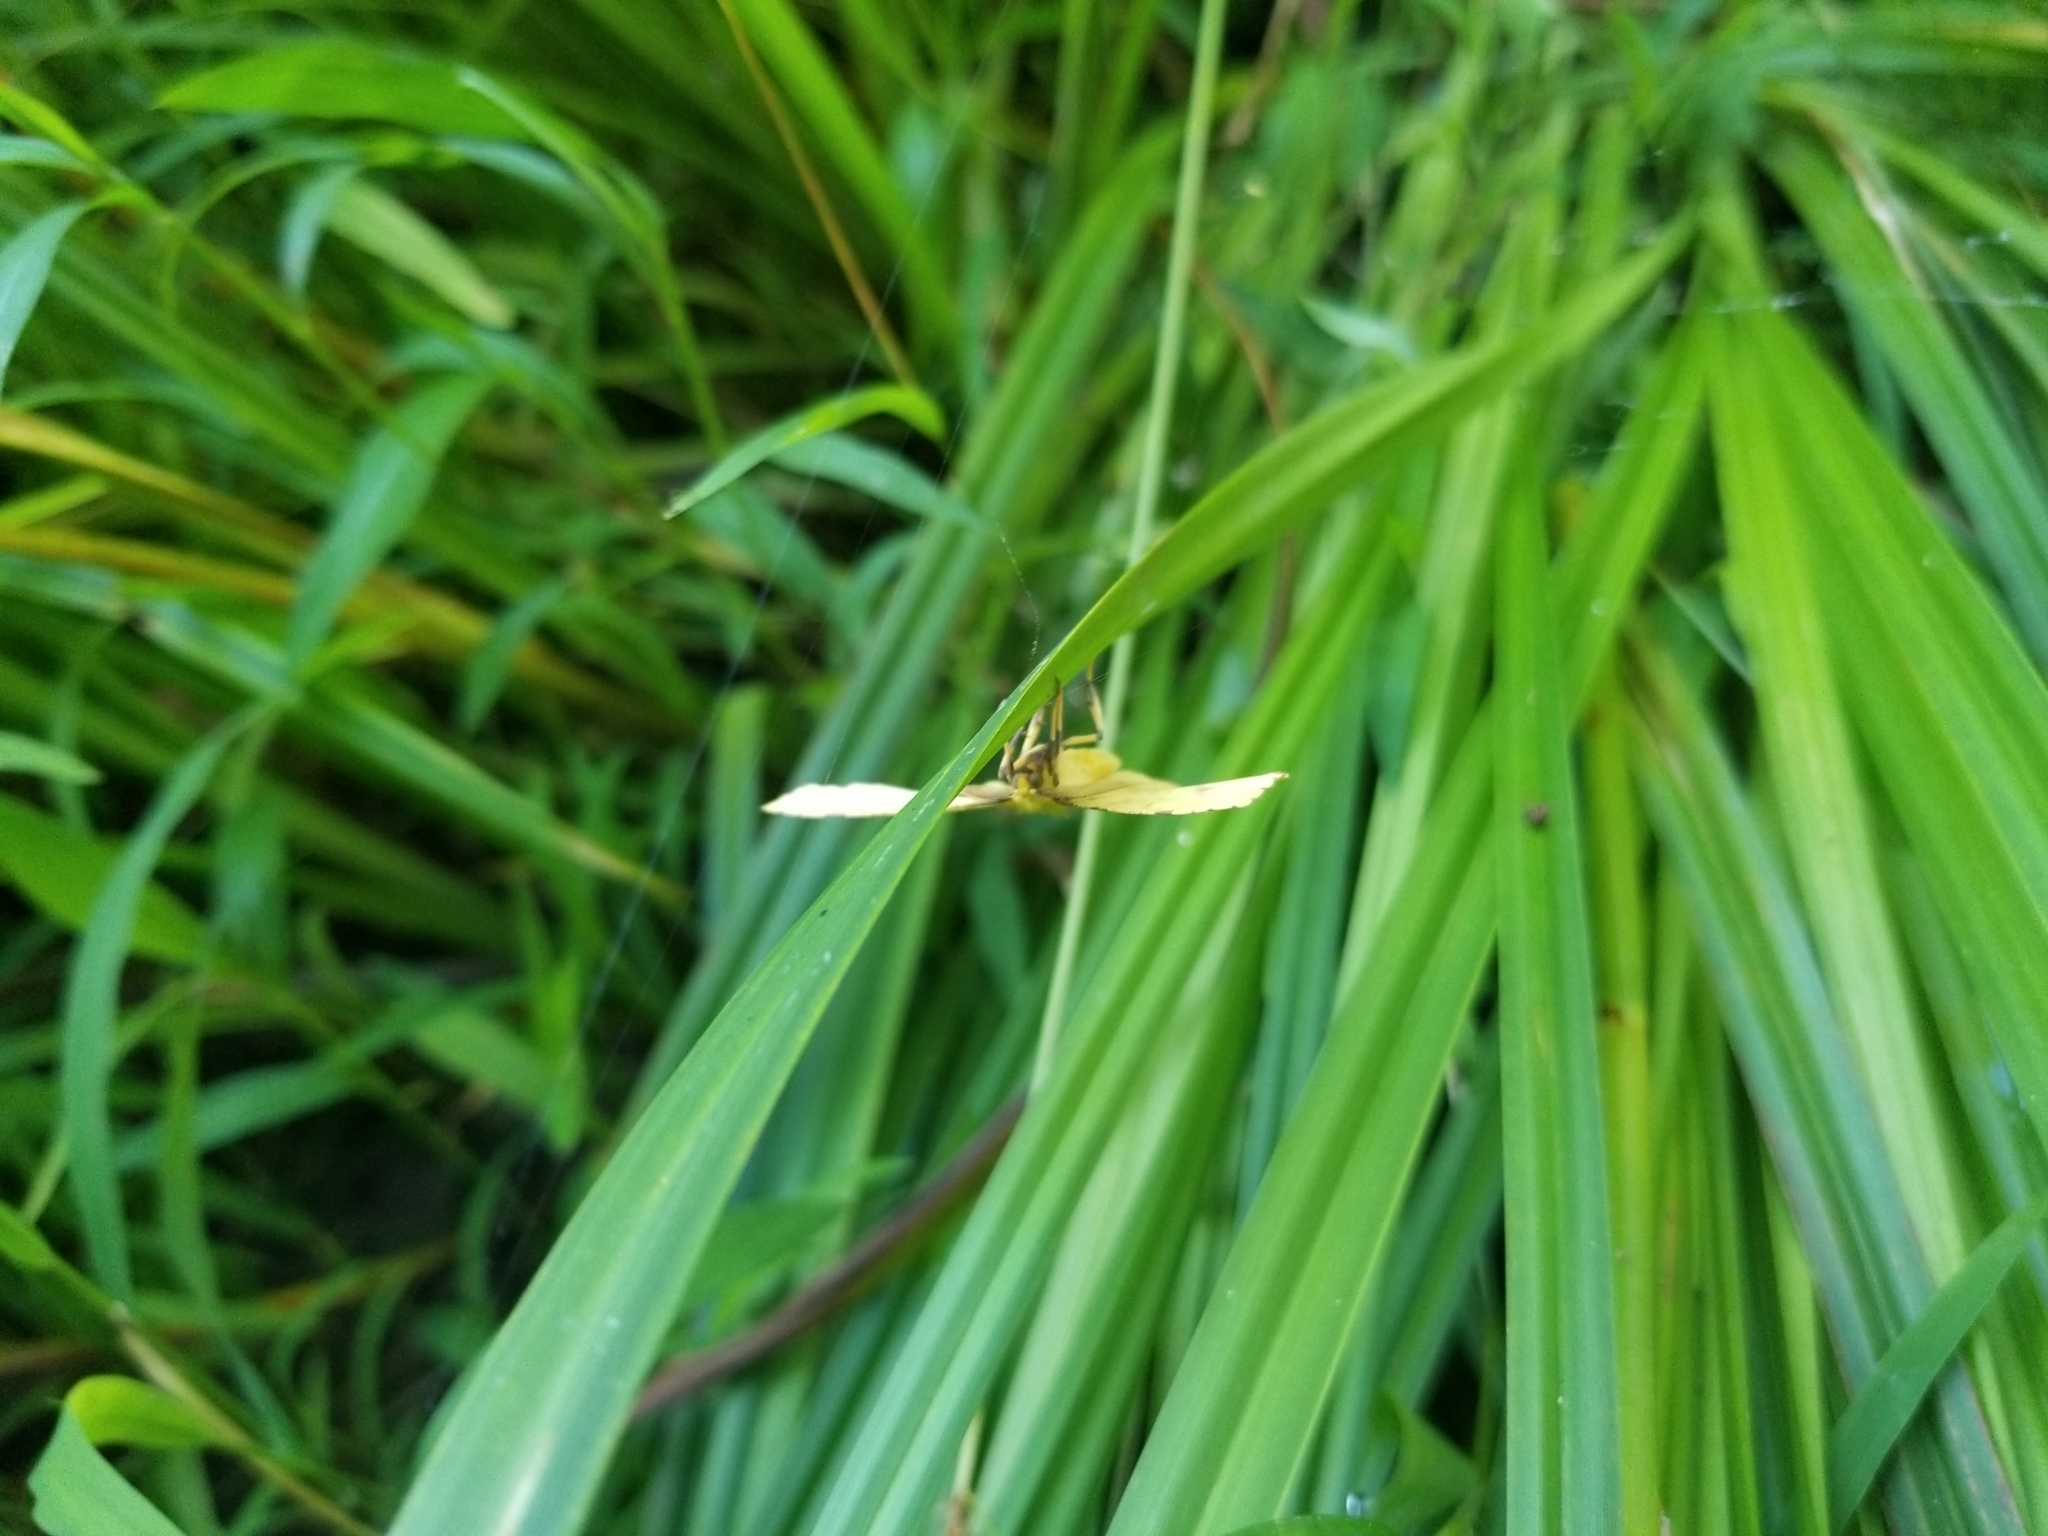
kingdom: Animalia
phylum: Arthropoda
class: Insecta
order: Lepidoptera
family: Geometridae
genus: Xanthotype
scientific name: Xanthotype
